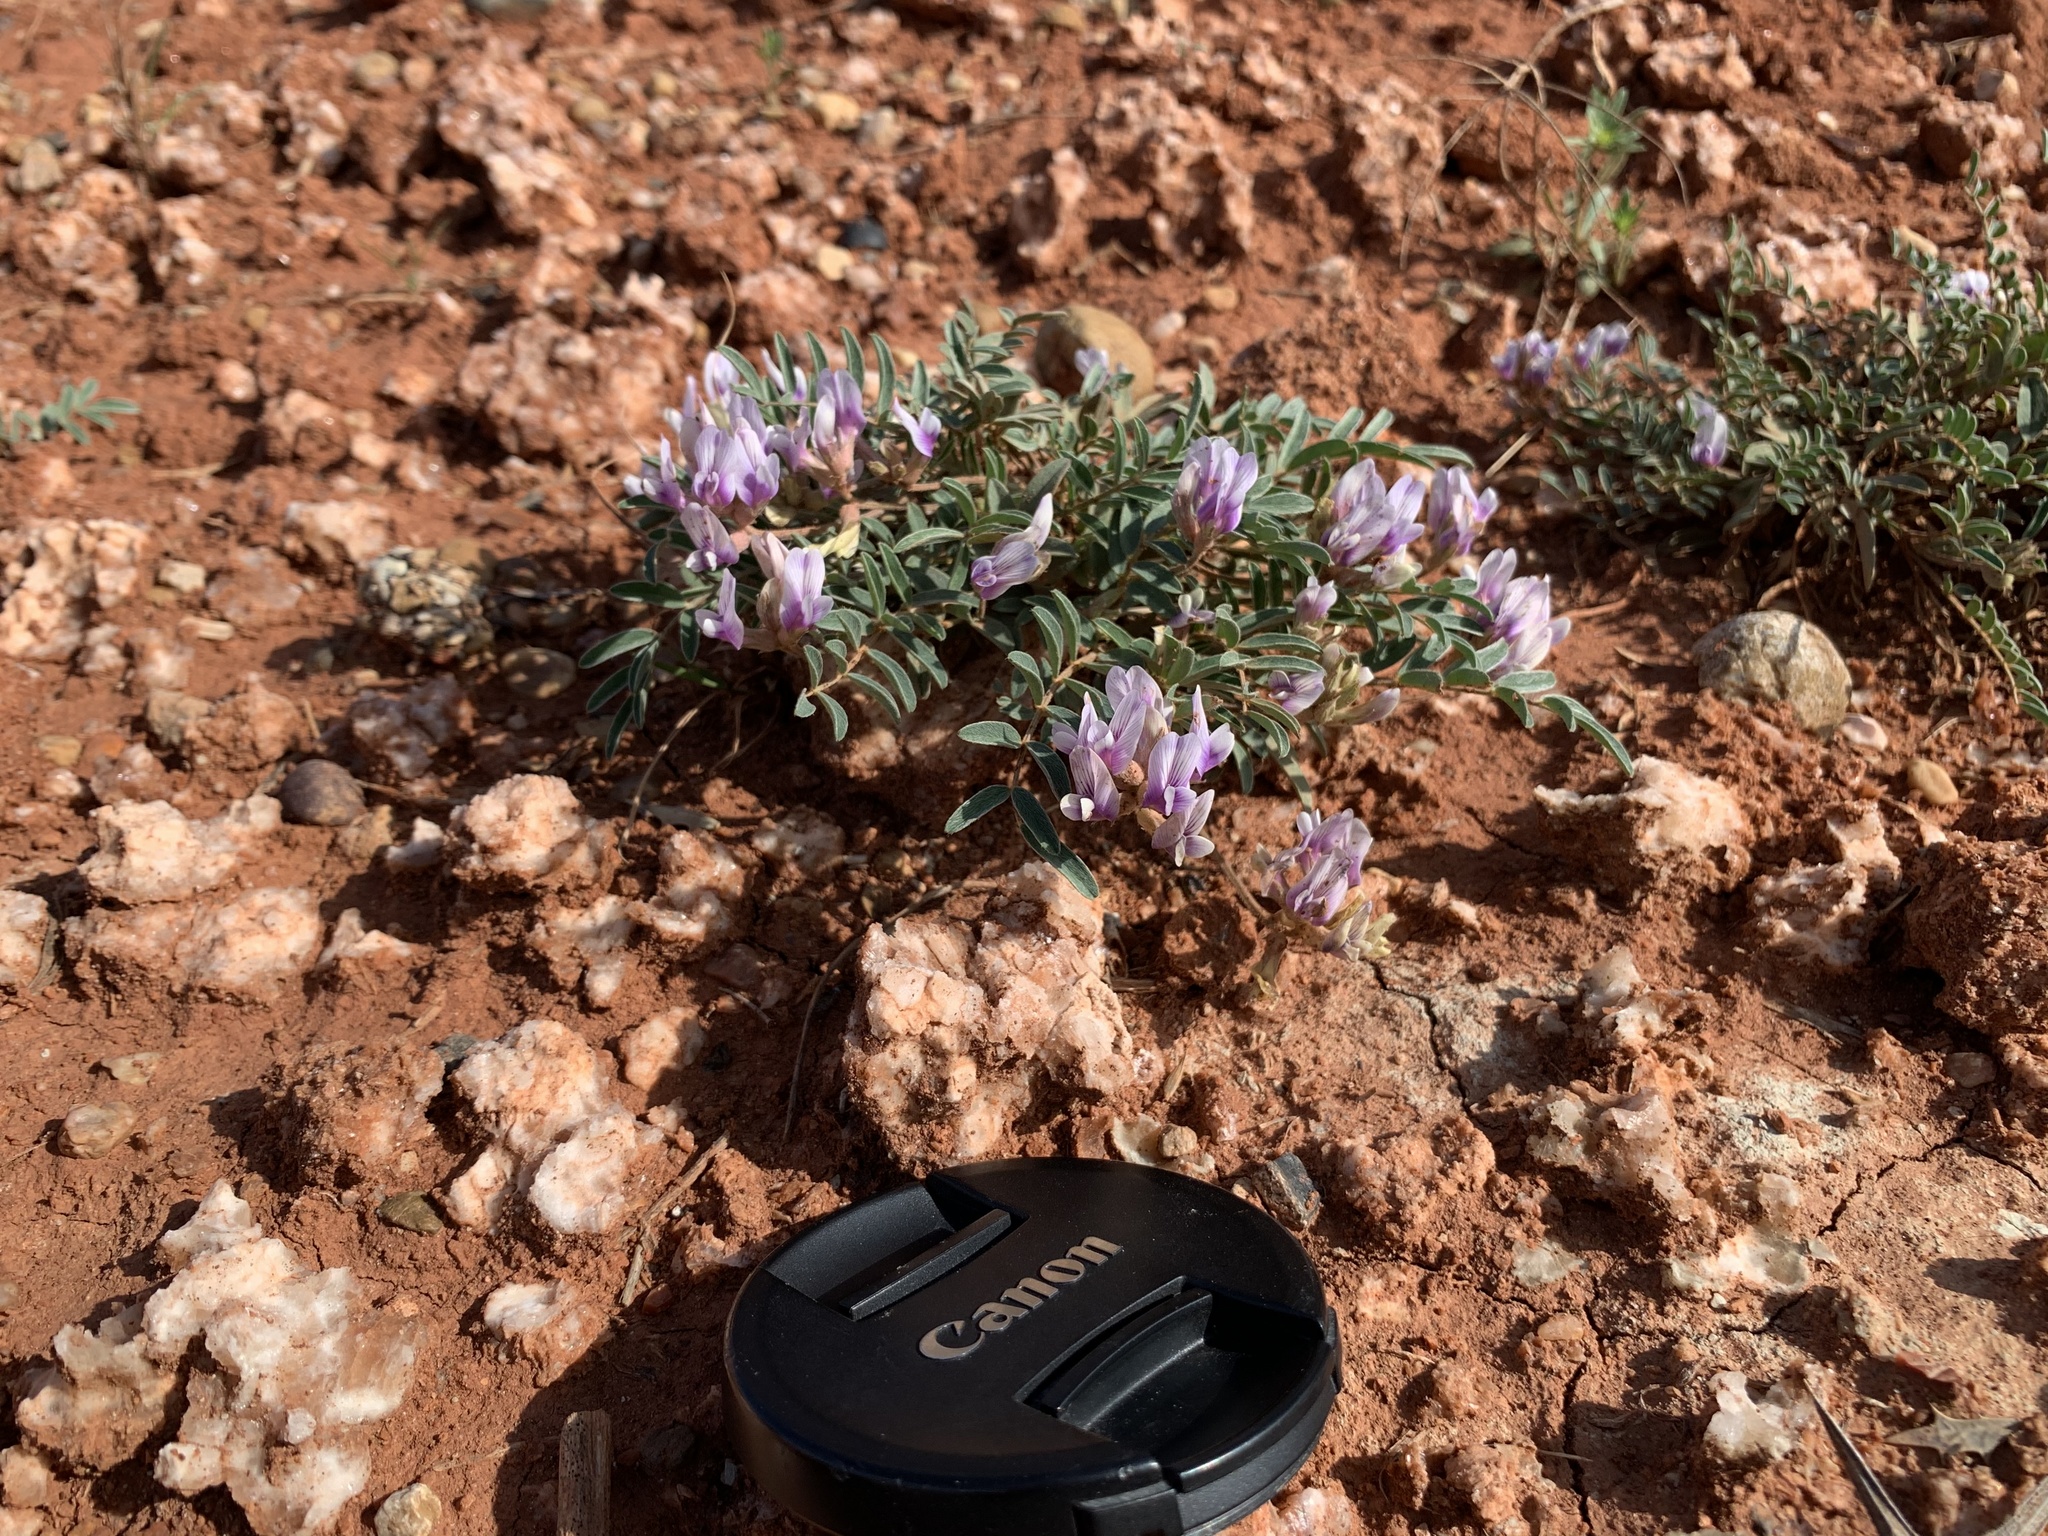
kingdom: Plantae
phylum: Tracheophyta
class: Magnoliopsida
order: Fabales
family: Fabaceae
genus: Astragalus
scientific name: Astragalus lotiflorus
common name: Lotus milk-vetch
